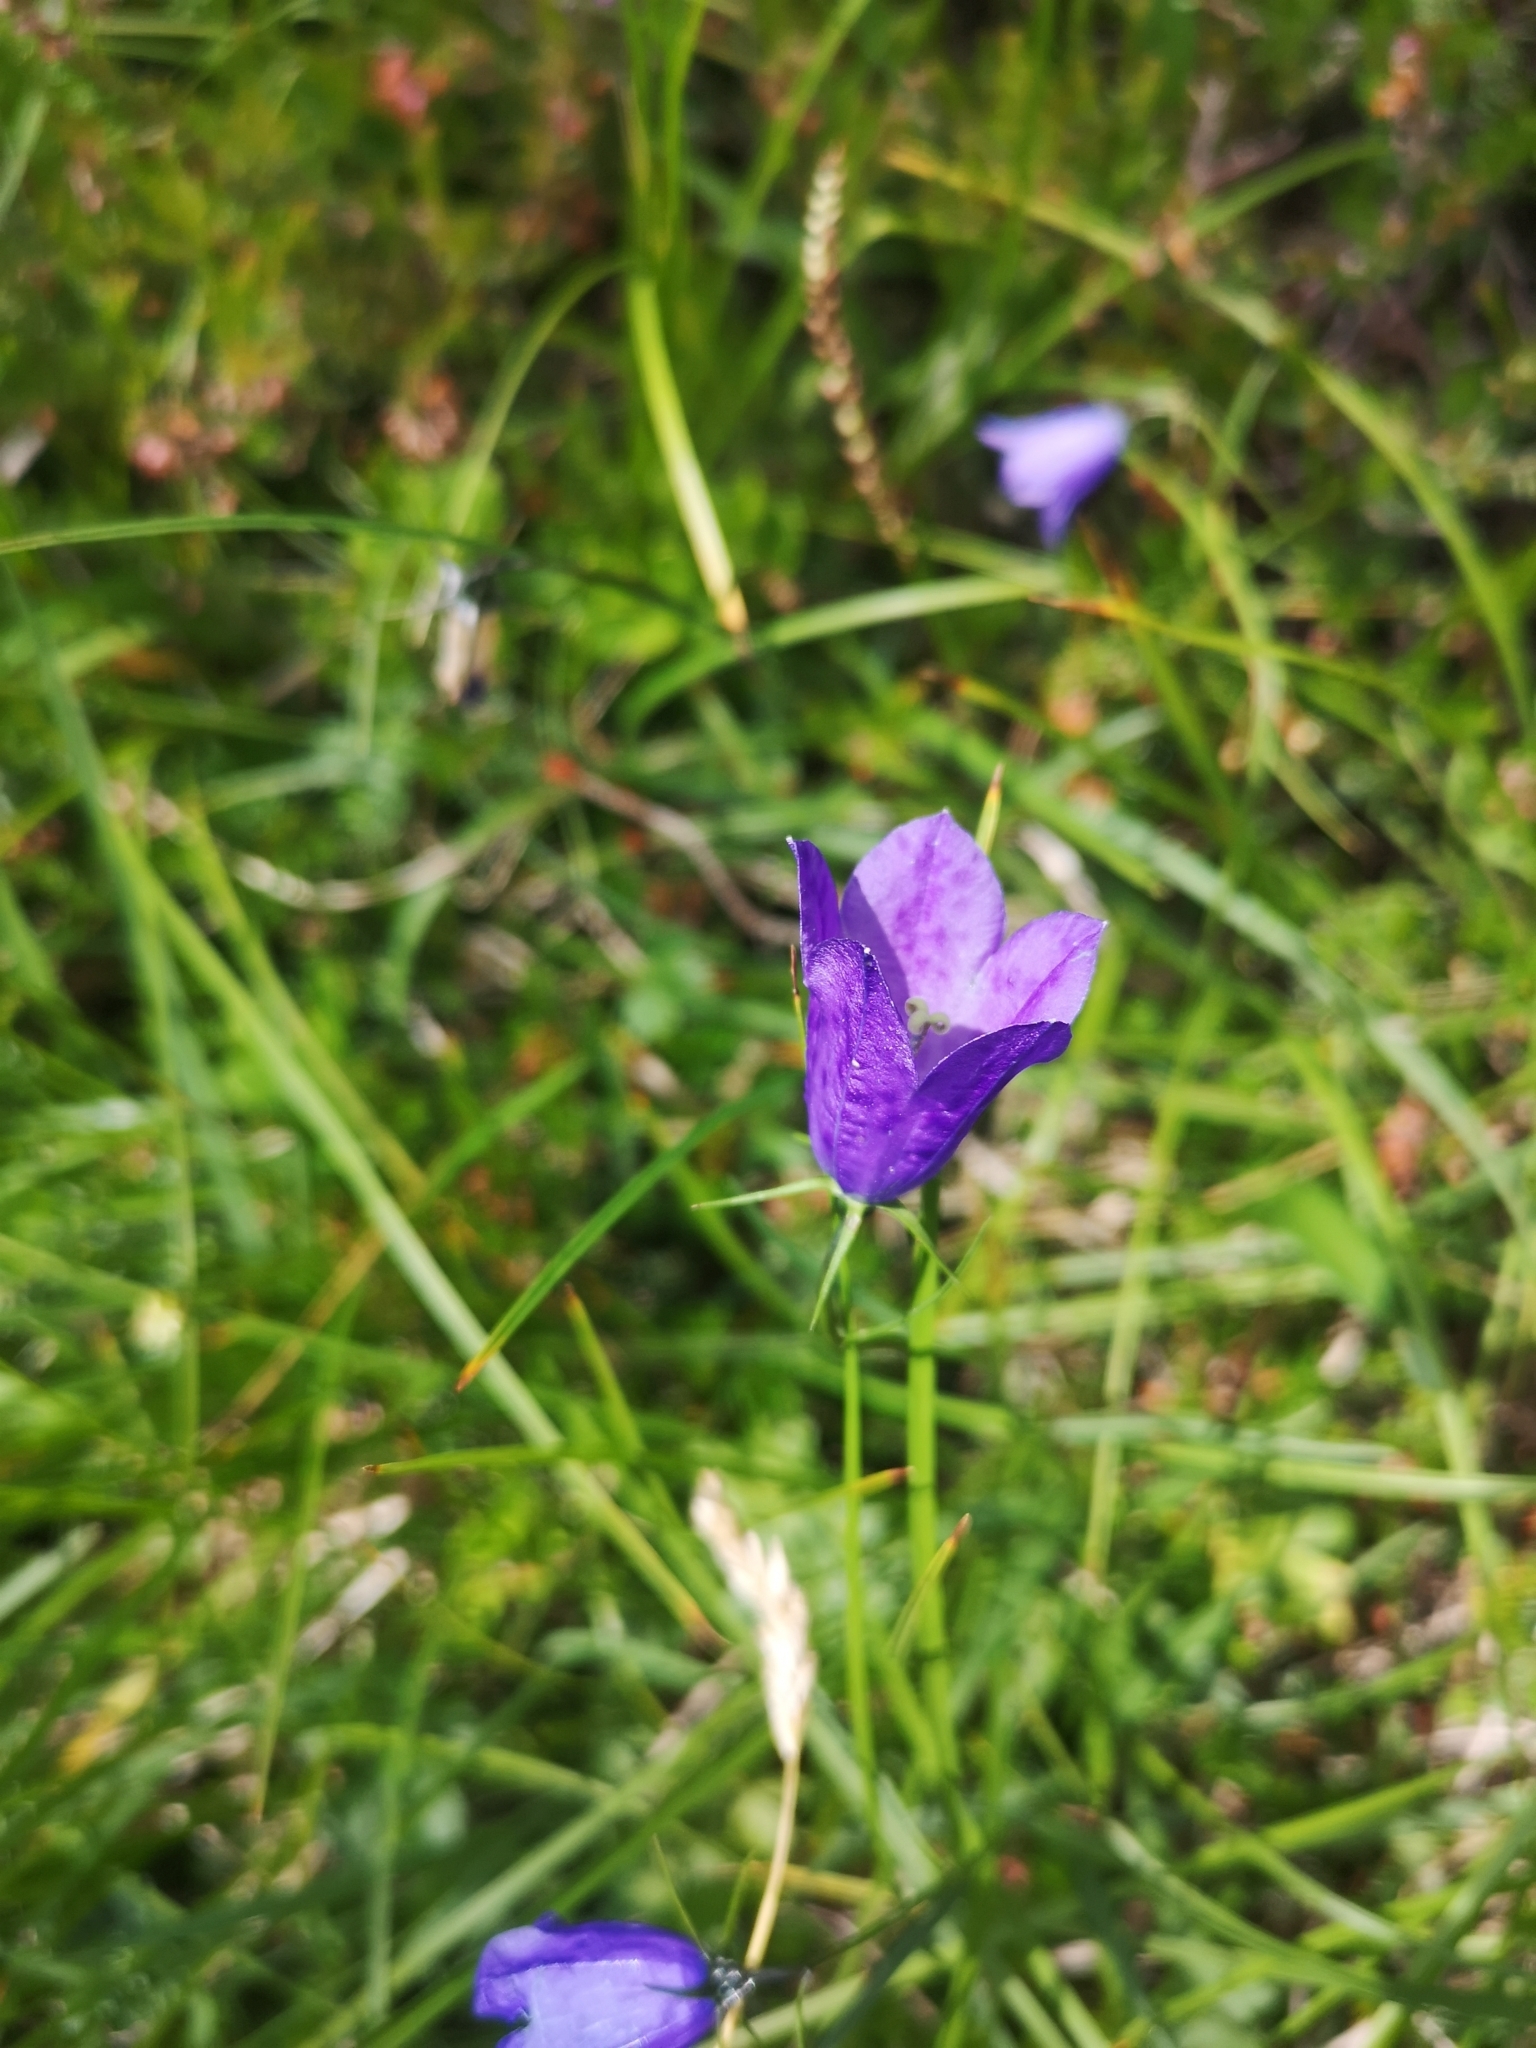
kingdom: Plantae
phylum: Tracheophyta
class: Magnoliopsida
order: Asterales
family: Campanulaceae
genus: Campanula
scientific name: Campanula scheuchzeri
